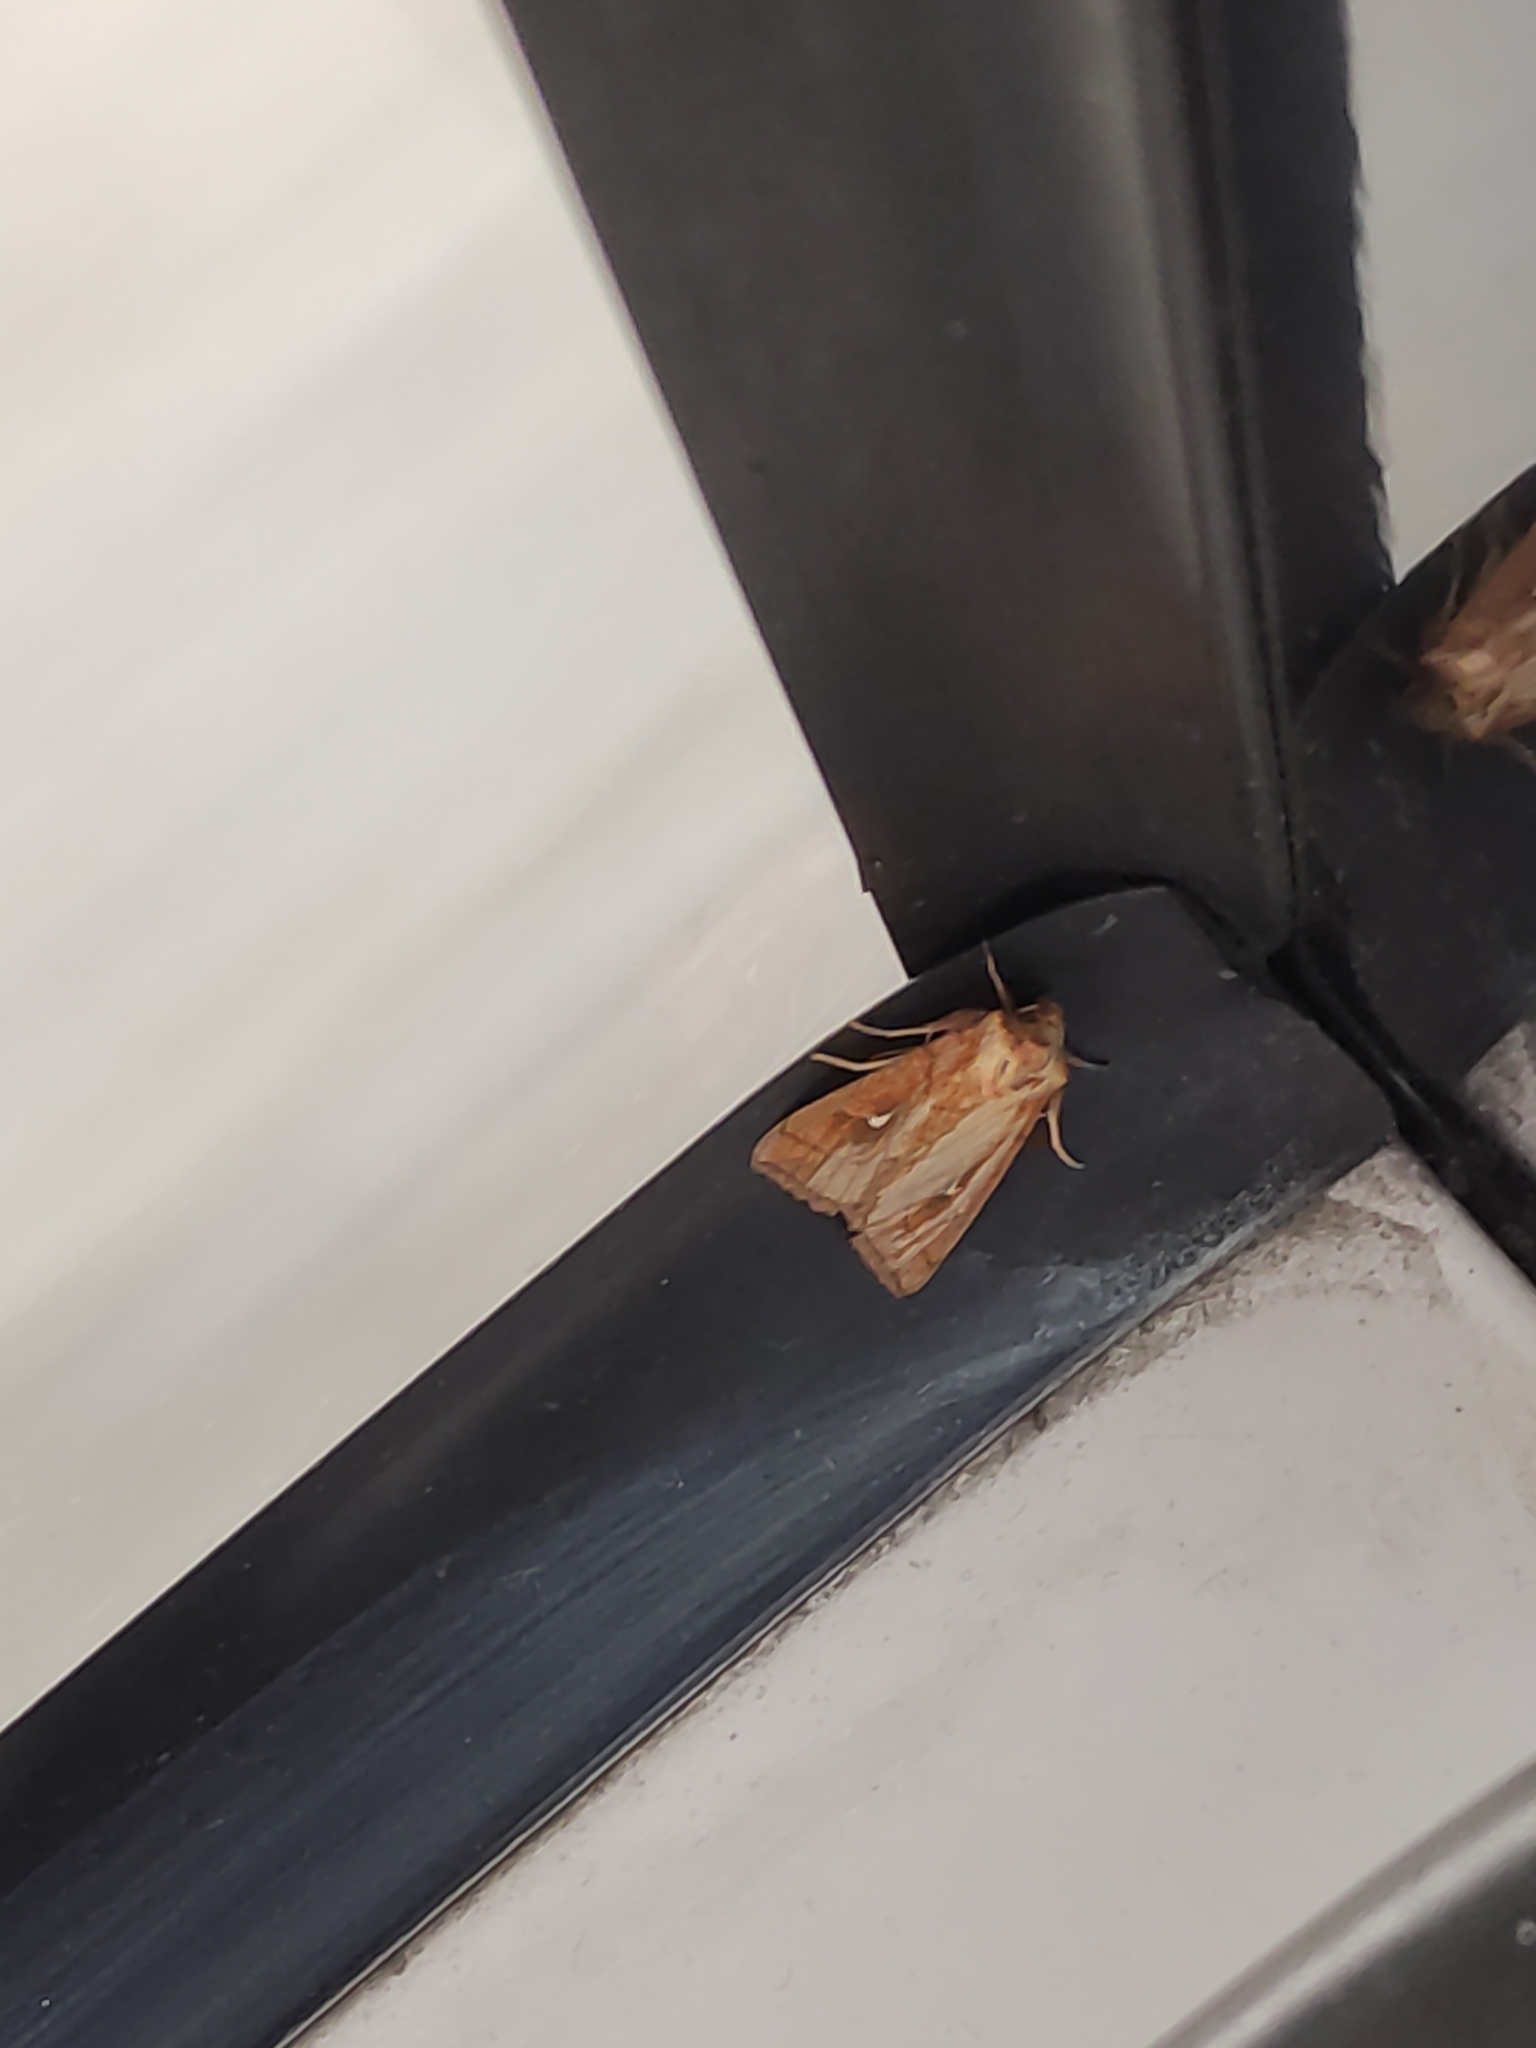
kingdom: Animalia
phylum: Arthropoda
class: Insecta
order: Lepidoptera
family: Noctuidae
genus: Mythimna
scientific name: Mythimna conigera
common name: Brown-line bright-eye
